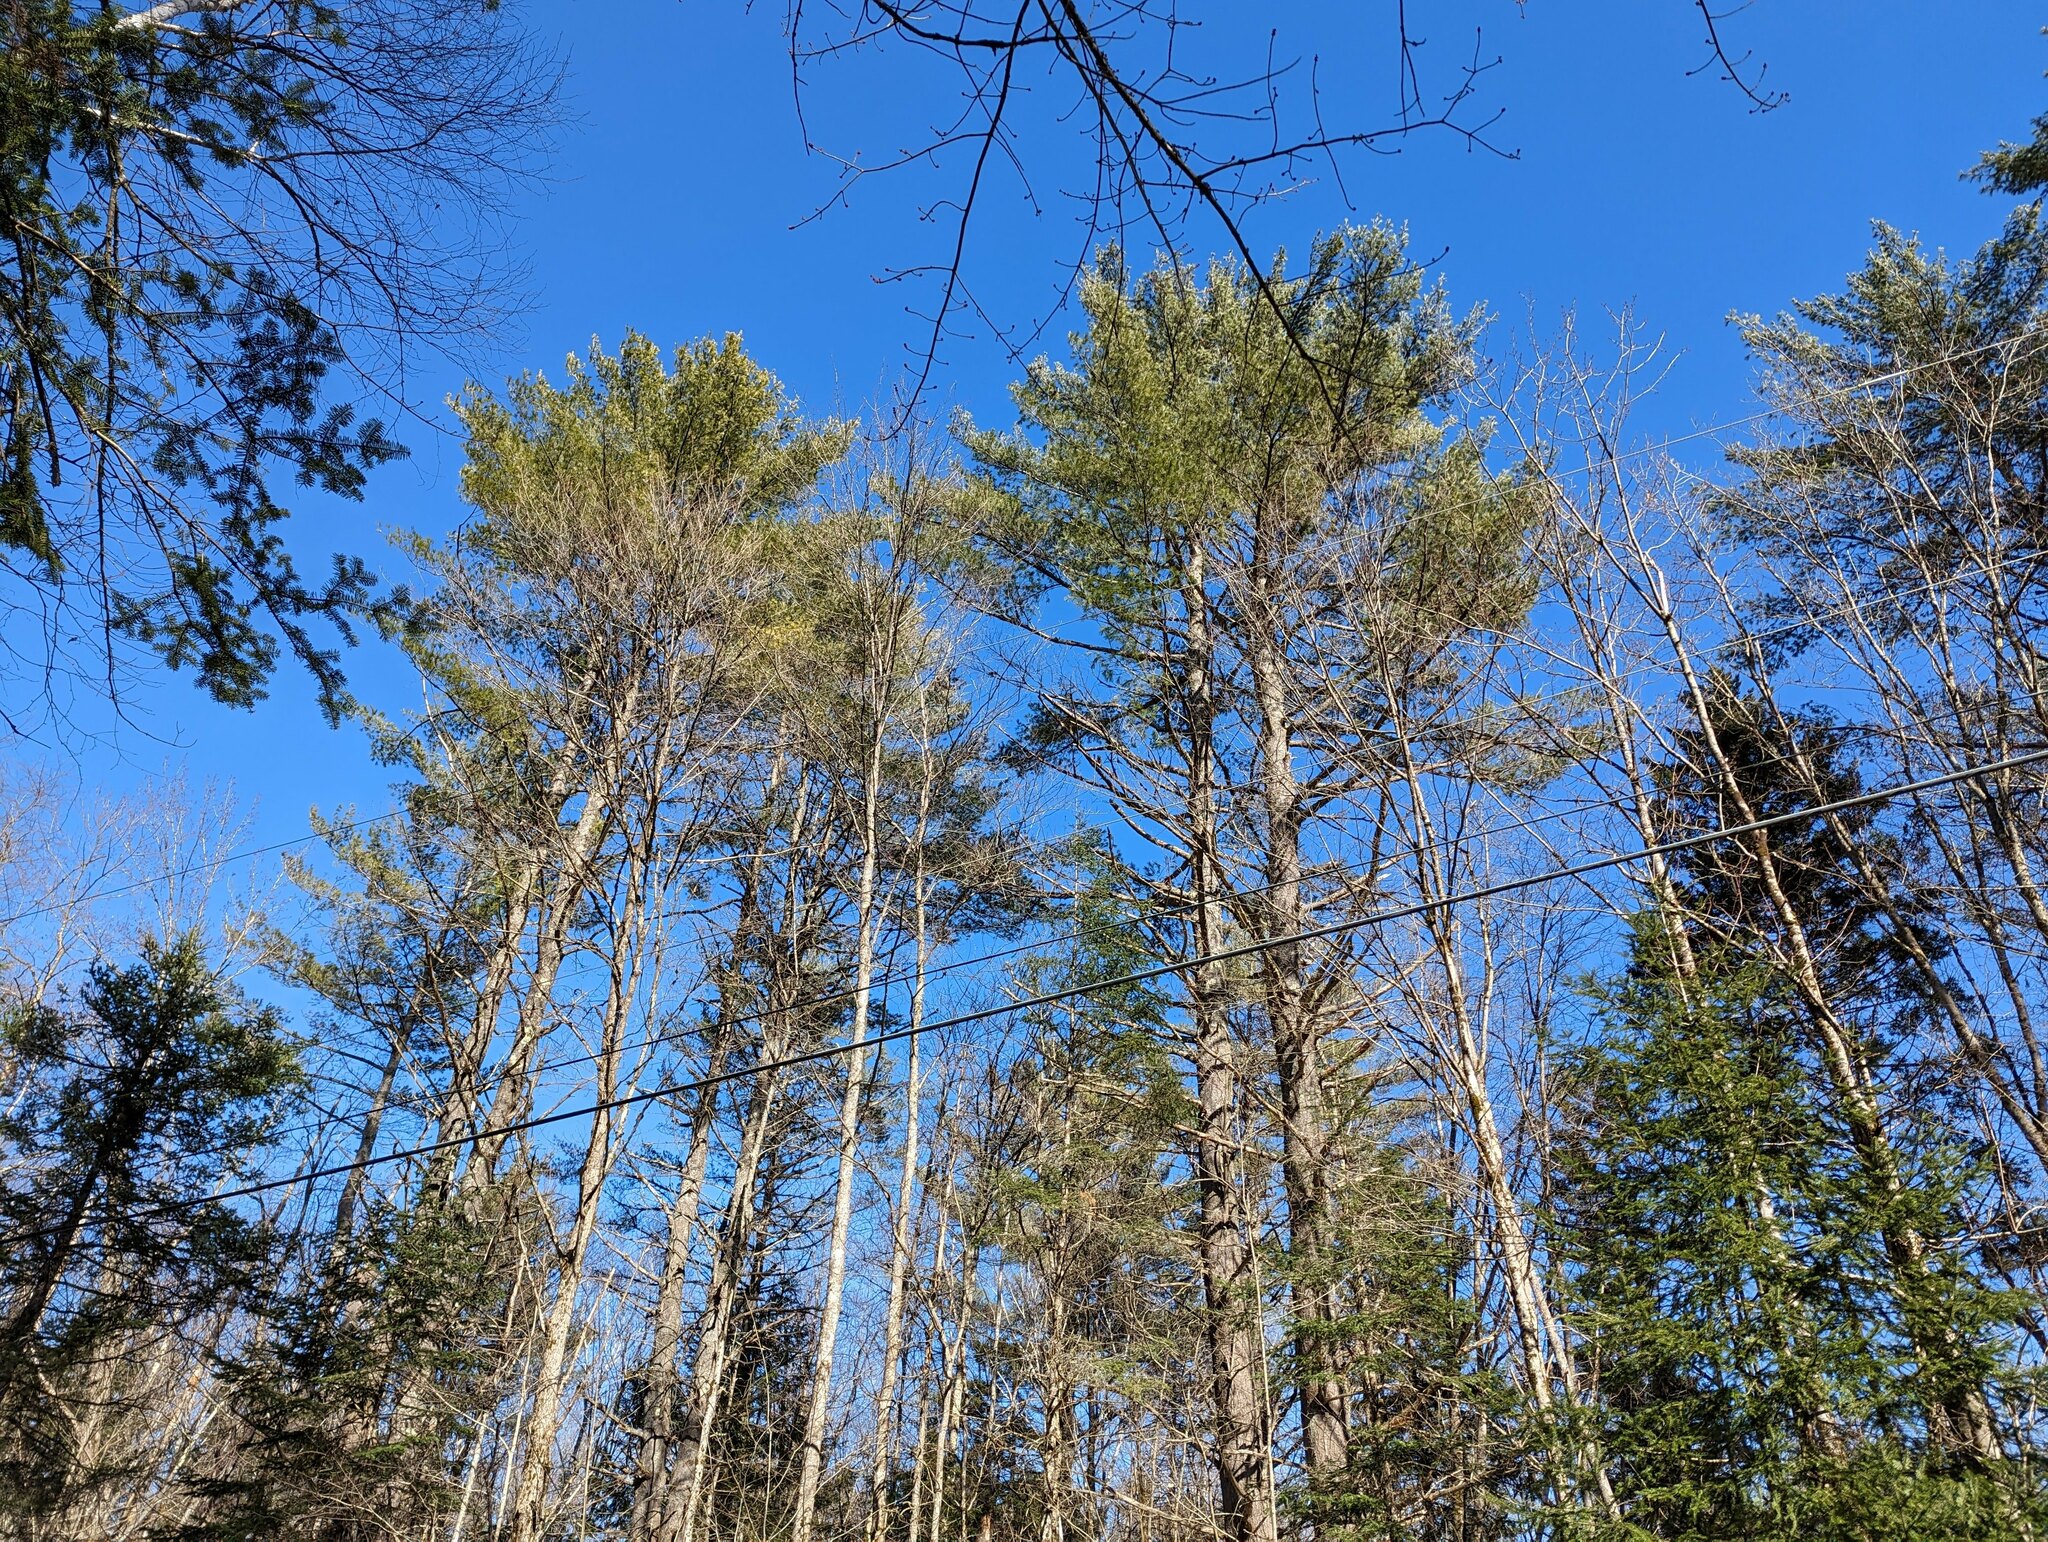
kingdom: Plantae
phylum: Tracheophyta
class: Pinopsida
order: Pinales
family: Pinaceae
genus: Pinus
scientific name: Pinus strobus
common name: Weymouth pine
